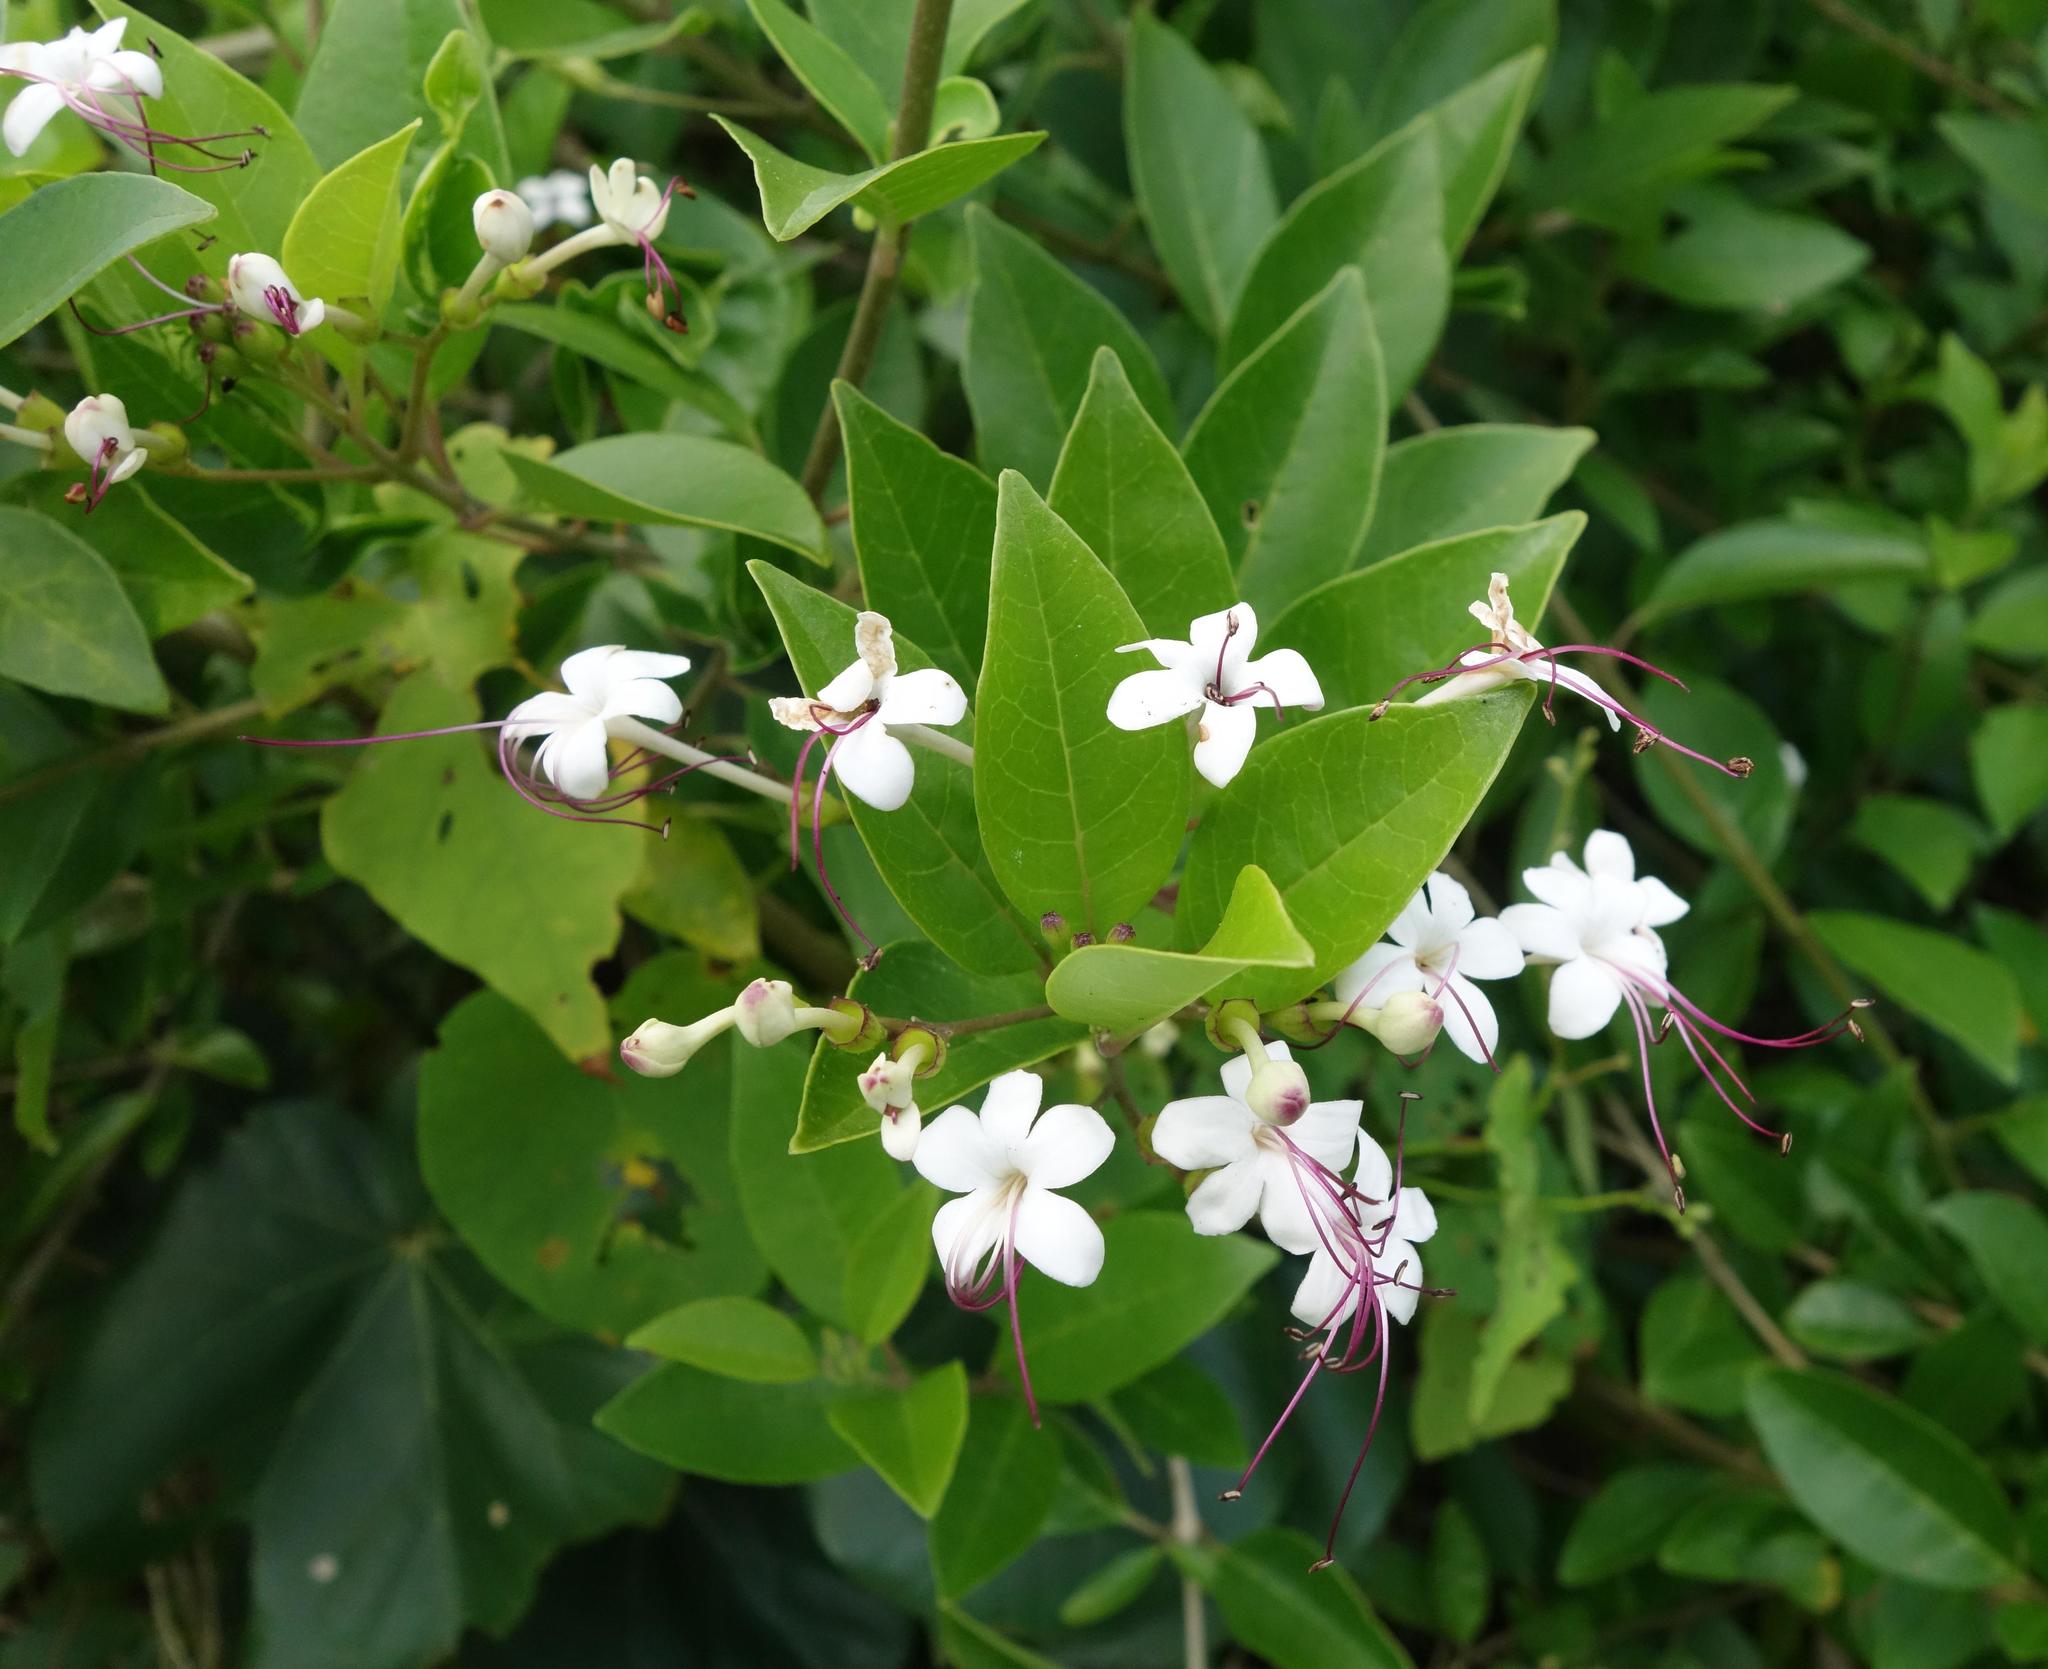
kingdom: Plantae
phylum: Tracheophyta
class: Magnoliopsida
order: Lamiales
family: Lamiaceae
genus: Volkameria
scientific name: Volkameria inermis
